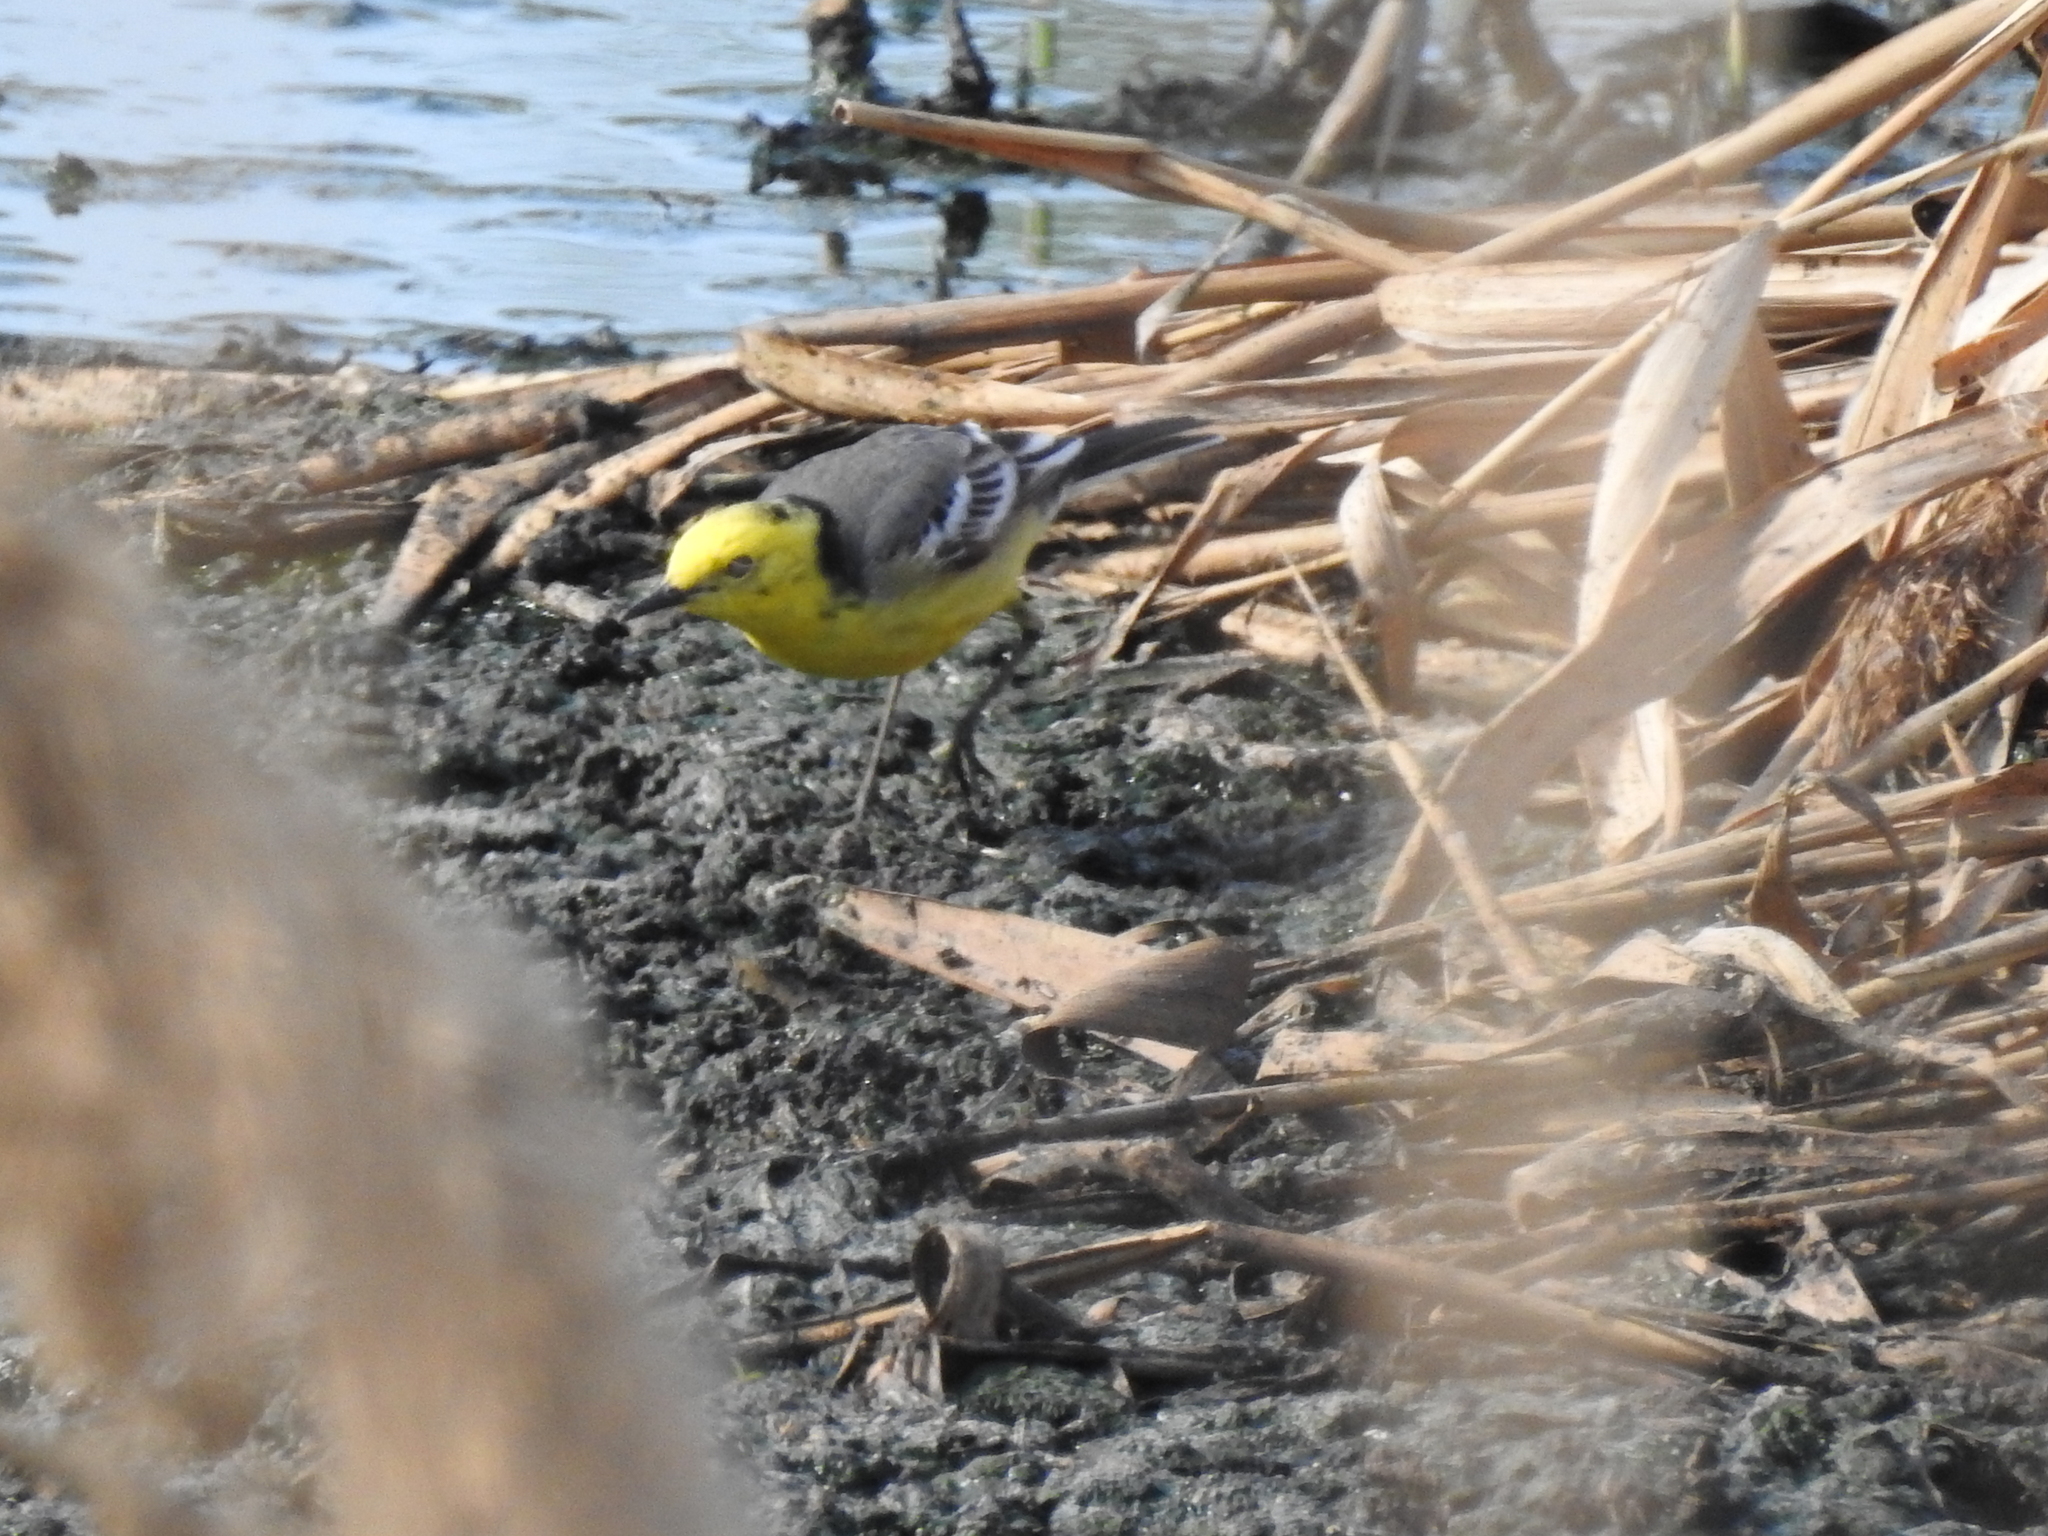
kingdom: Animalia
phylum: Chordata
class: Aves
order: Passeriformes
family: Motacillidae
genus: Motacilla
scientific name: Motacilla citreola
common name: Citrine wagtail
